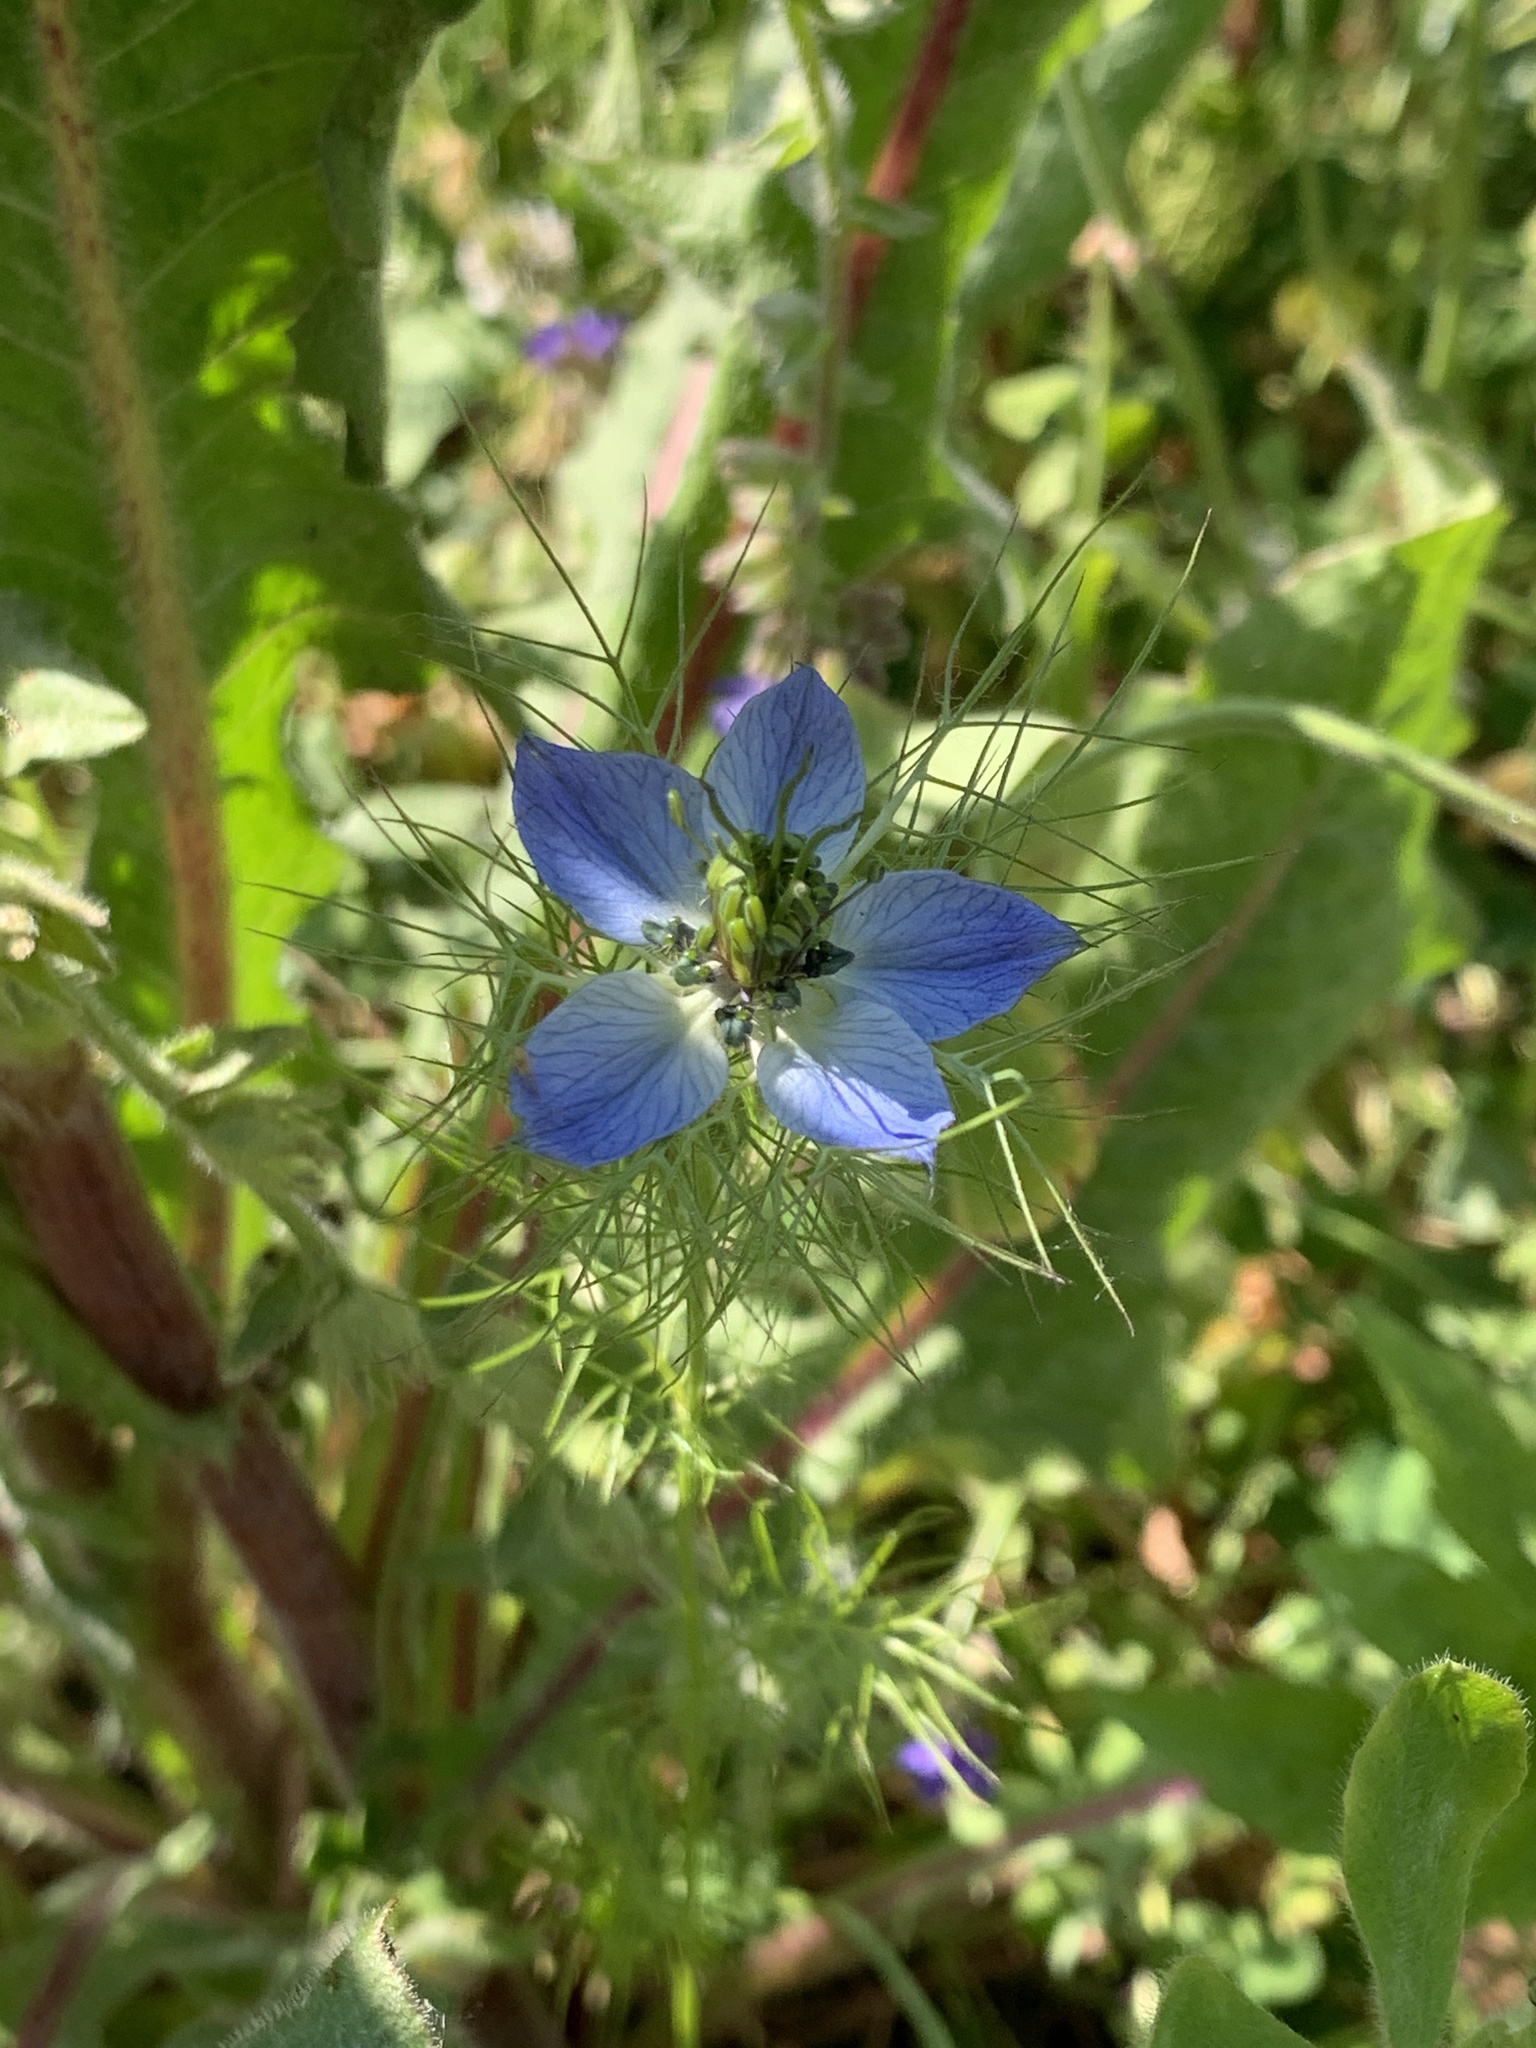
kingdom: Plantae
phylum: Tracheophyta
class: Magnoliopsida
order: Ranunculales
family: Ranunculaceae
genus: Nigella
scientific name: Nigella damascena
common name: Love-in-a-mist
